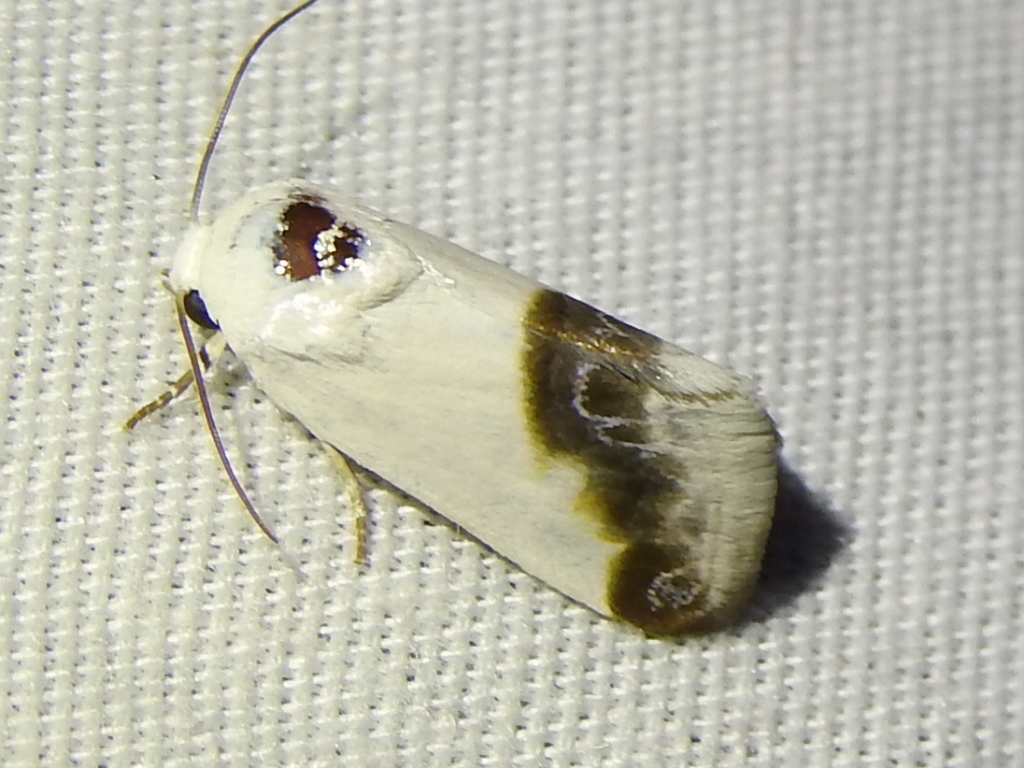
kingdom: Animalia
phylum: Arthropoda
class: Insecta
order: Lepidoptera
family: Noctuidae
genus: Acontia
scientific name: Acontia cretata
